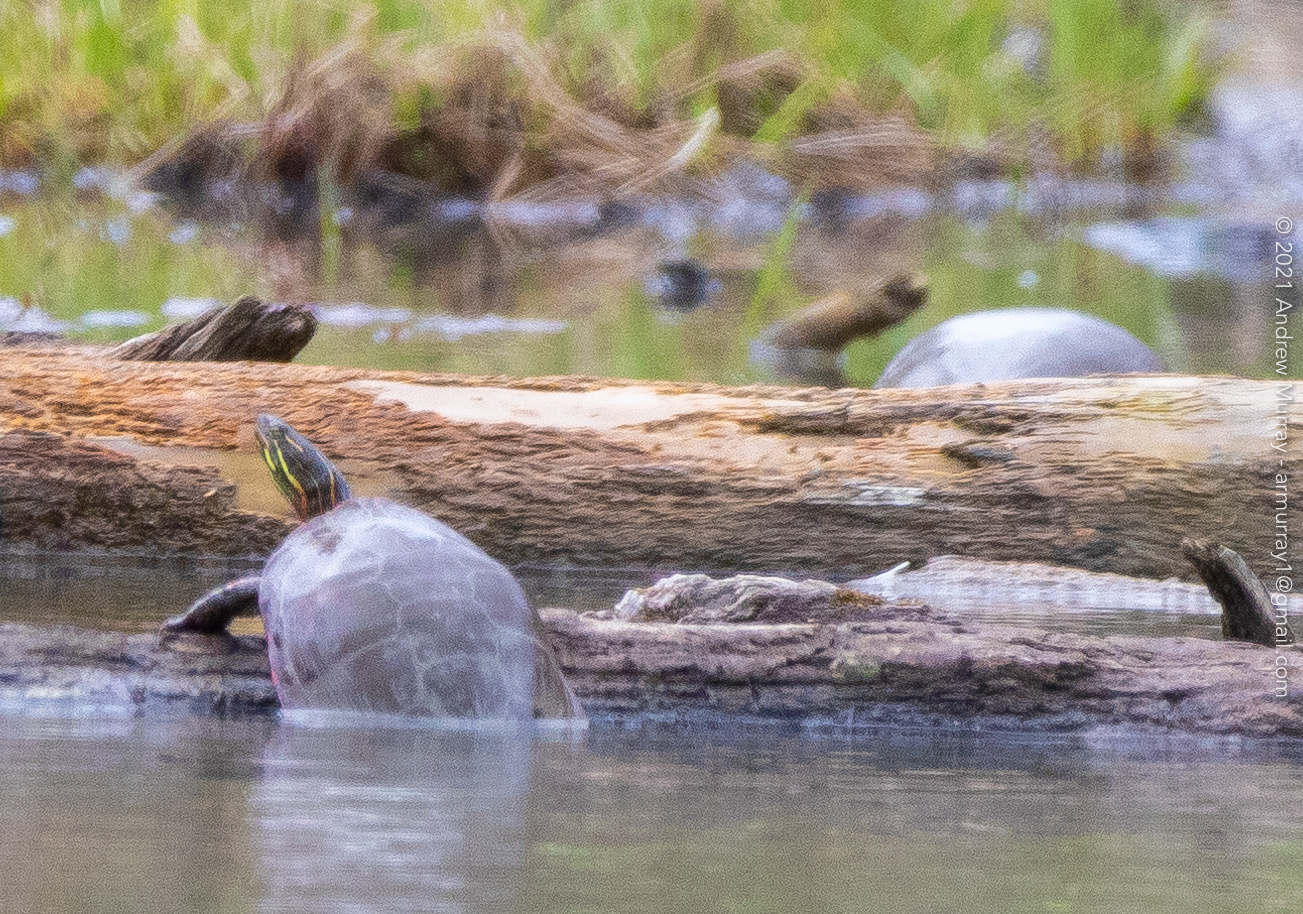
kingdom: Animalia
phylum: Chordata
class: Testudines
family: Emydidae
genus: Chrysemys
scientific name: Chrysemys picta
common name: Painted turtle
